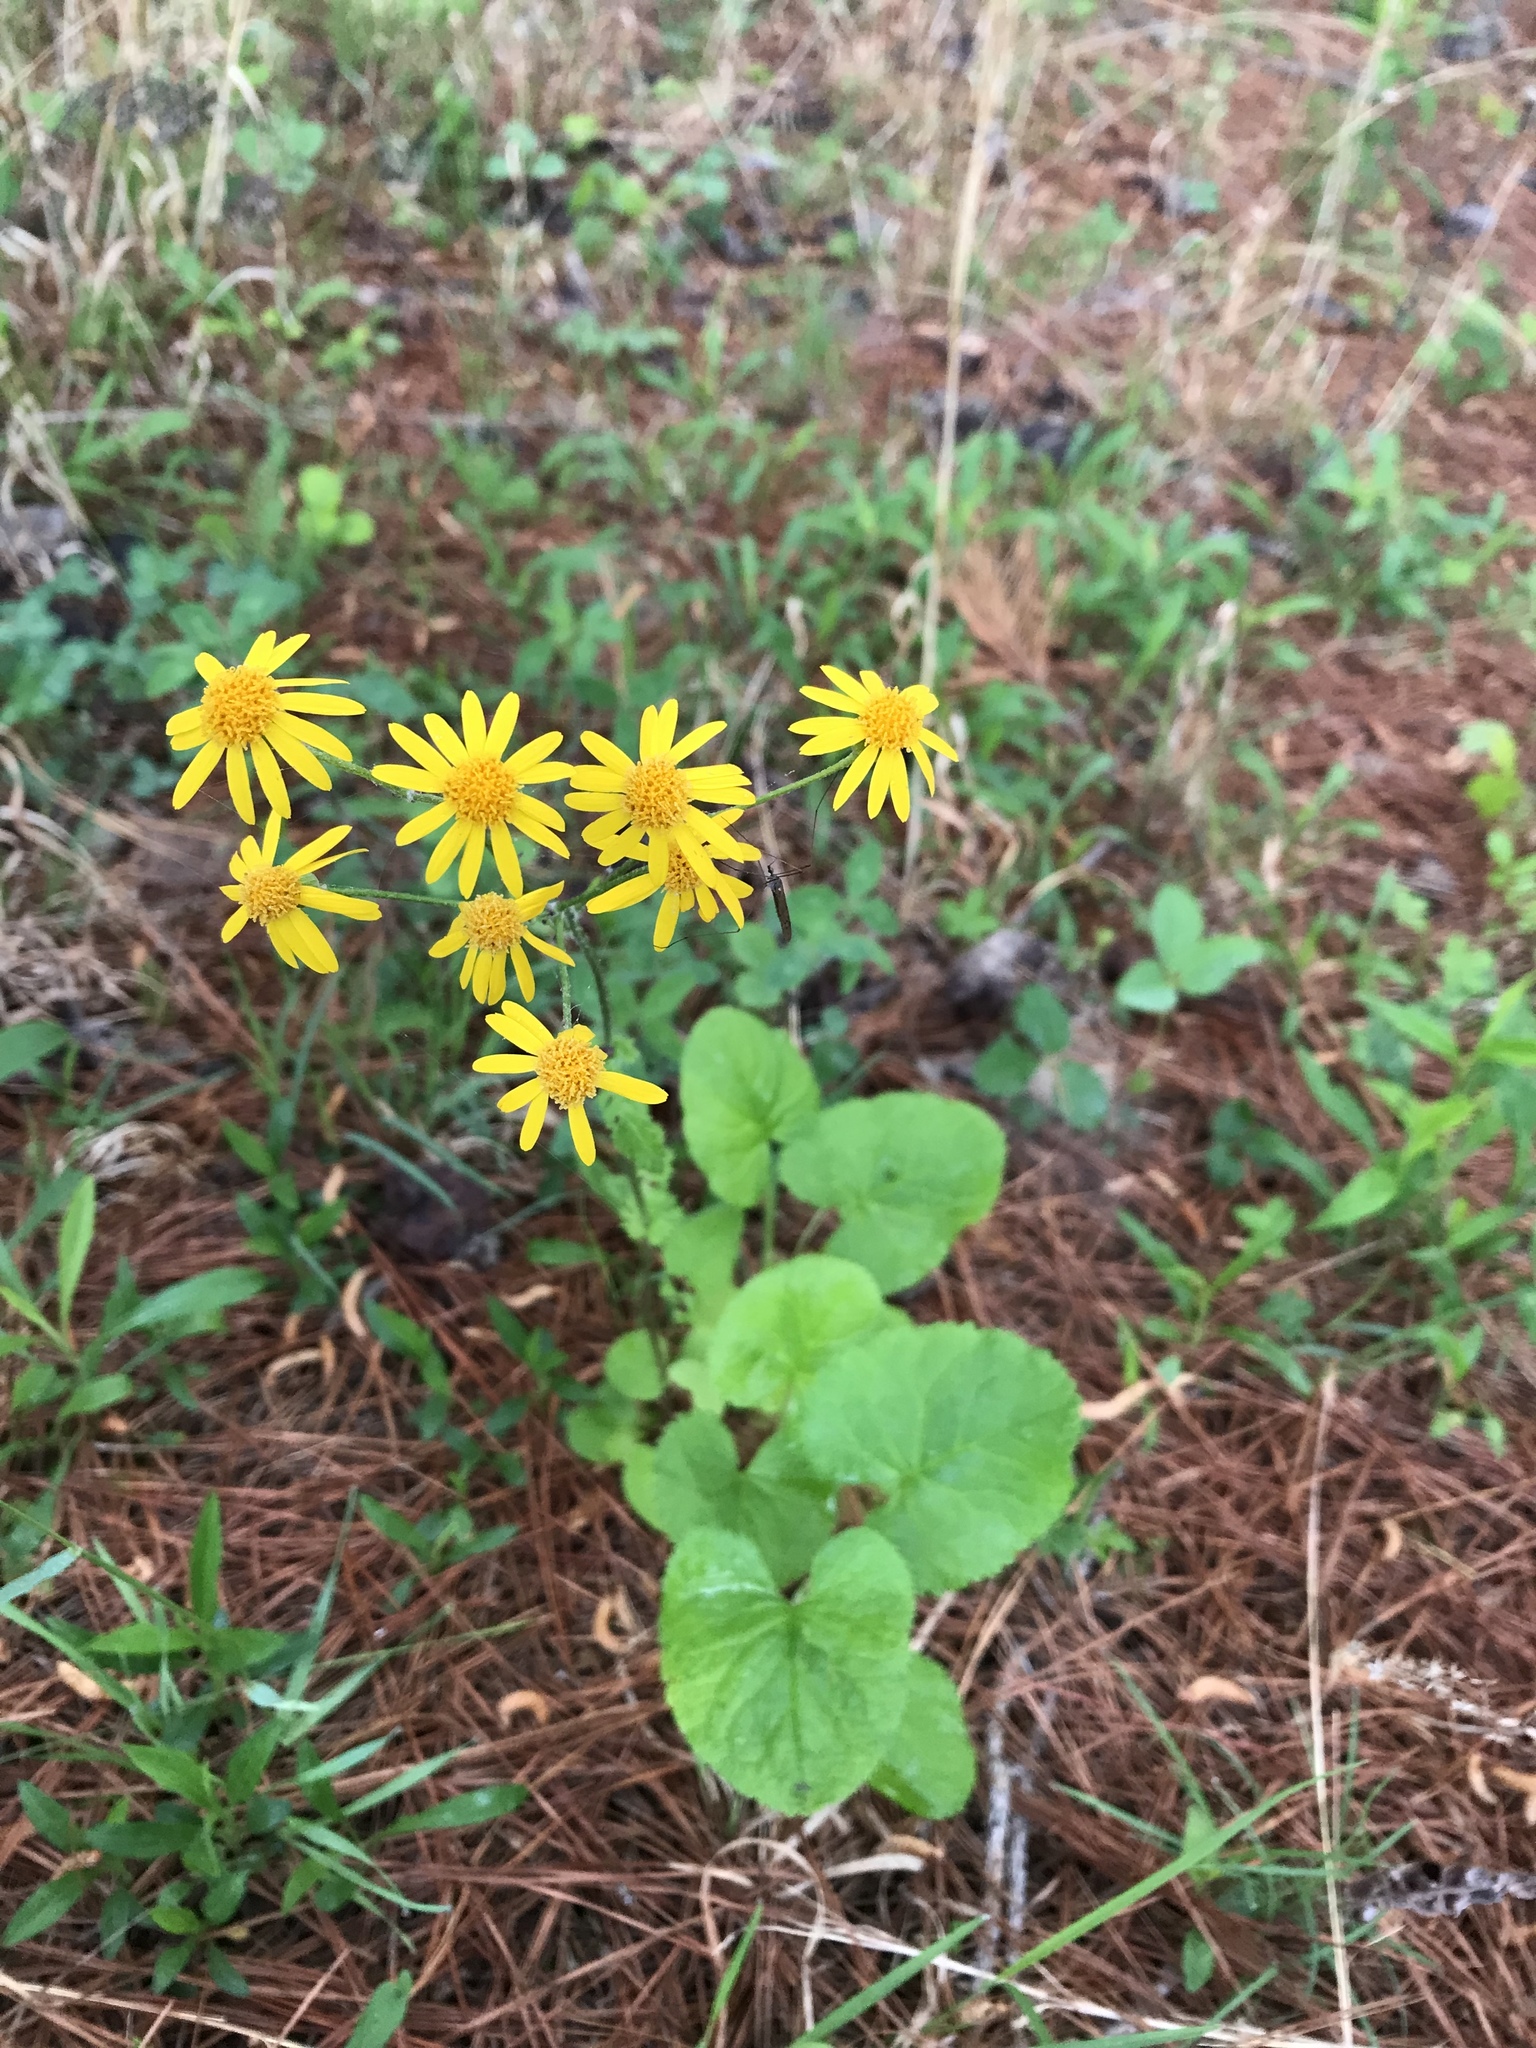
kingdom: Plantae
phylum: Tracheophyta
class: Magnoliopsida
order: Asterales
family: Asteraceae
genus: Packera
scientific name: Packera aurea
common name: Golden groundsel
